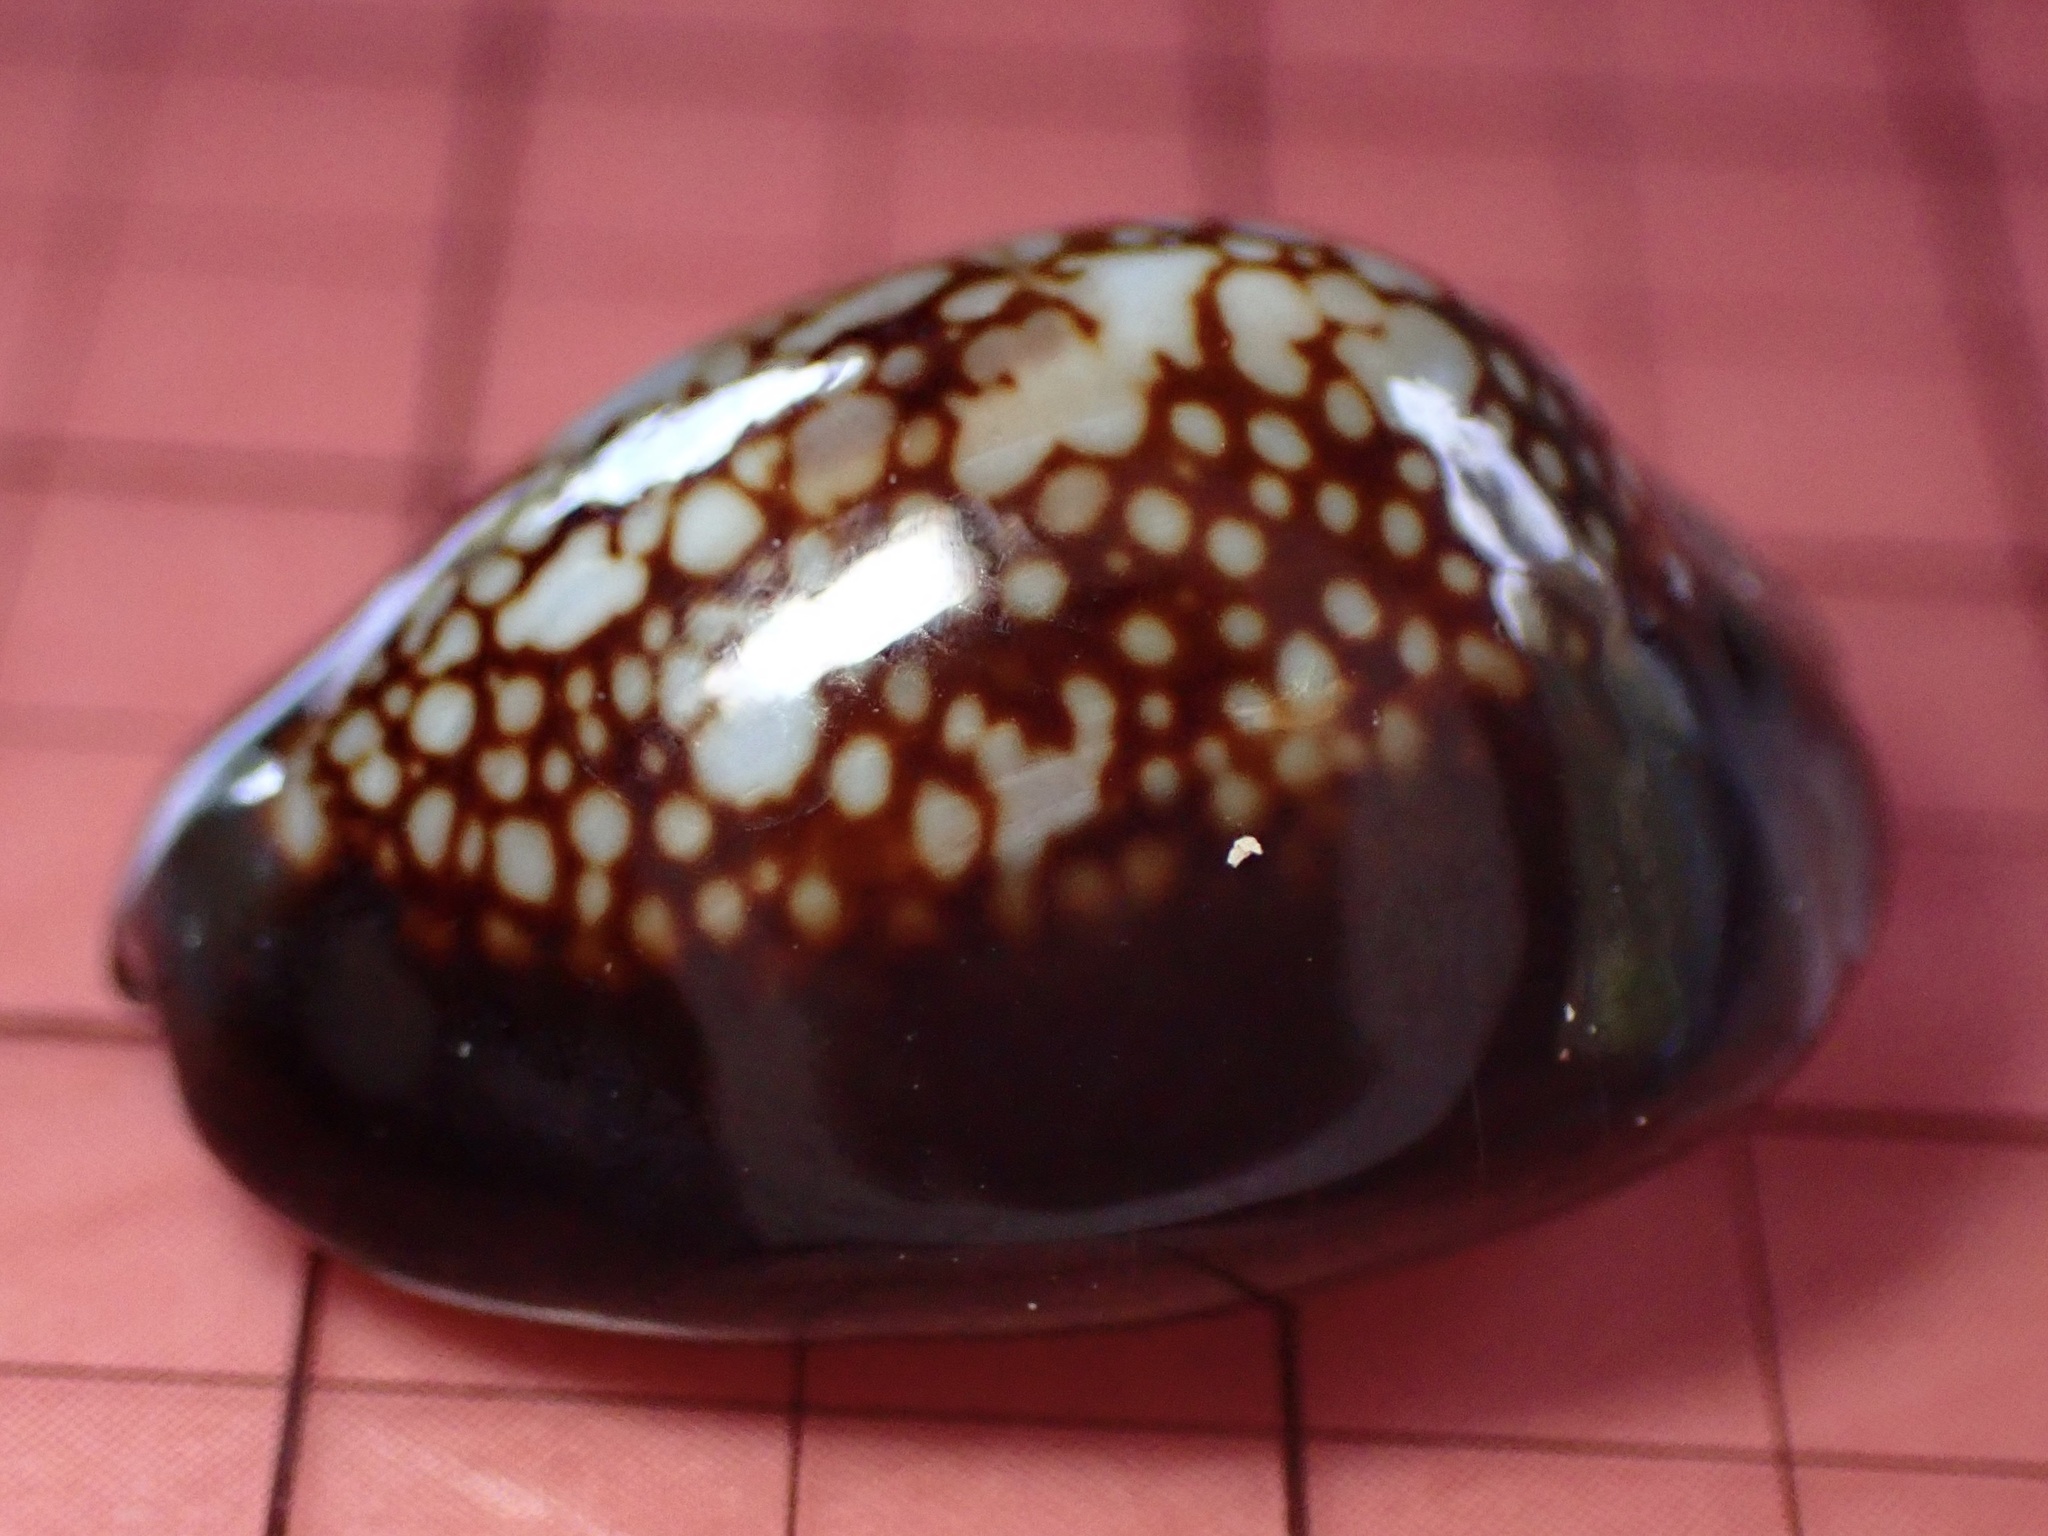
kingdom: Animalia
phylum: Mollusca
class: Gastropoda
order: Littorinimorpha
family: Cypraeidae
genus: Monetaria
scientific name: Monetaria caputophidii
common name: Snake's head cowry
